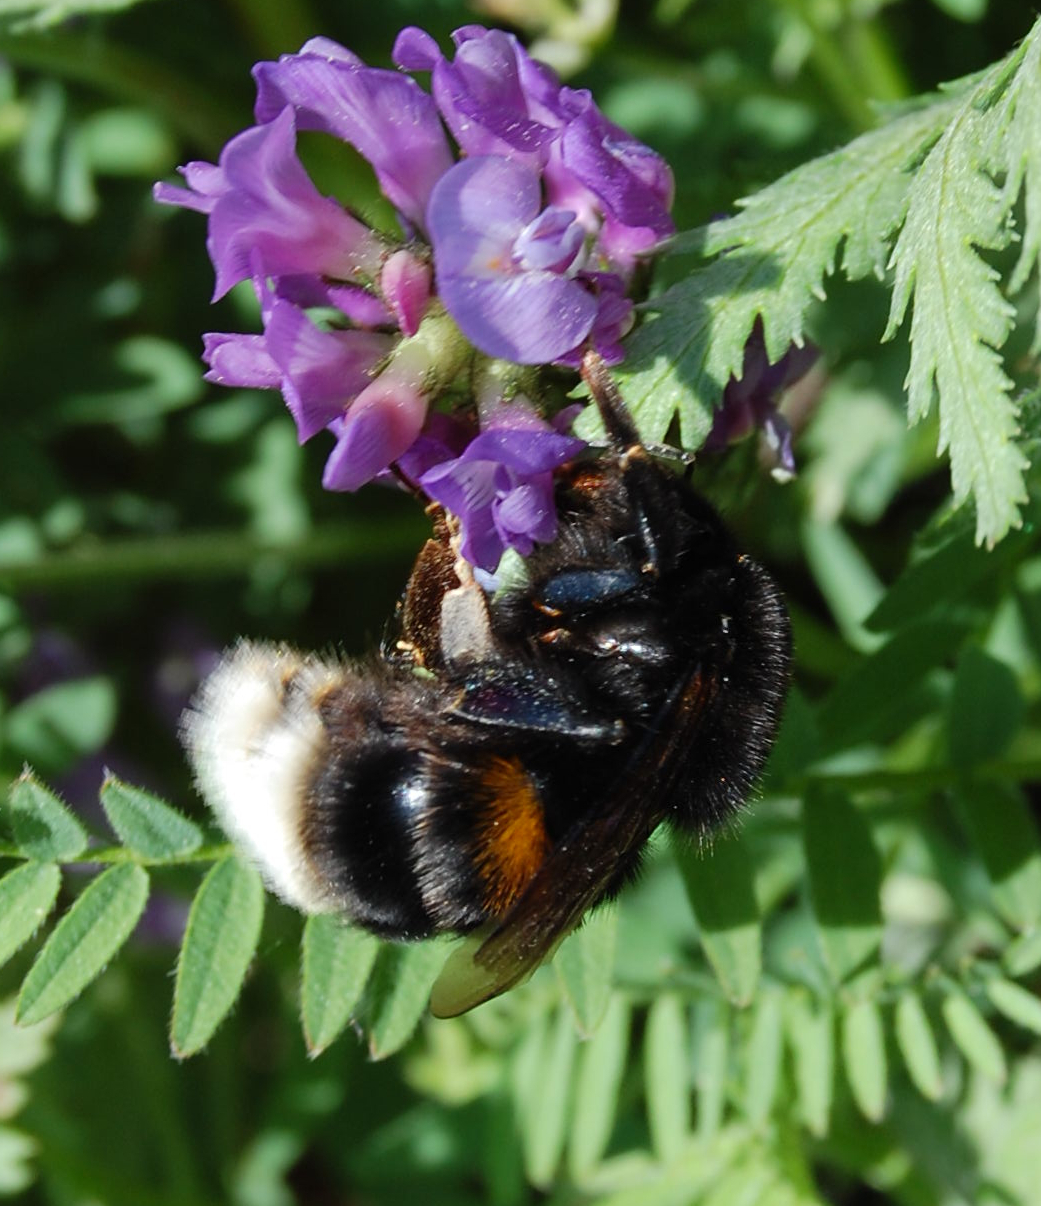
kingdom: Animalia
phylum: Arthropoda
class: Insecta
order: Hymenoptera
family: Apidae
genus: Bombus
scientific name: Bombus
